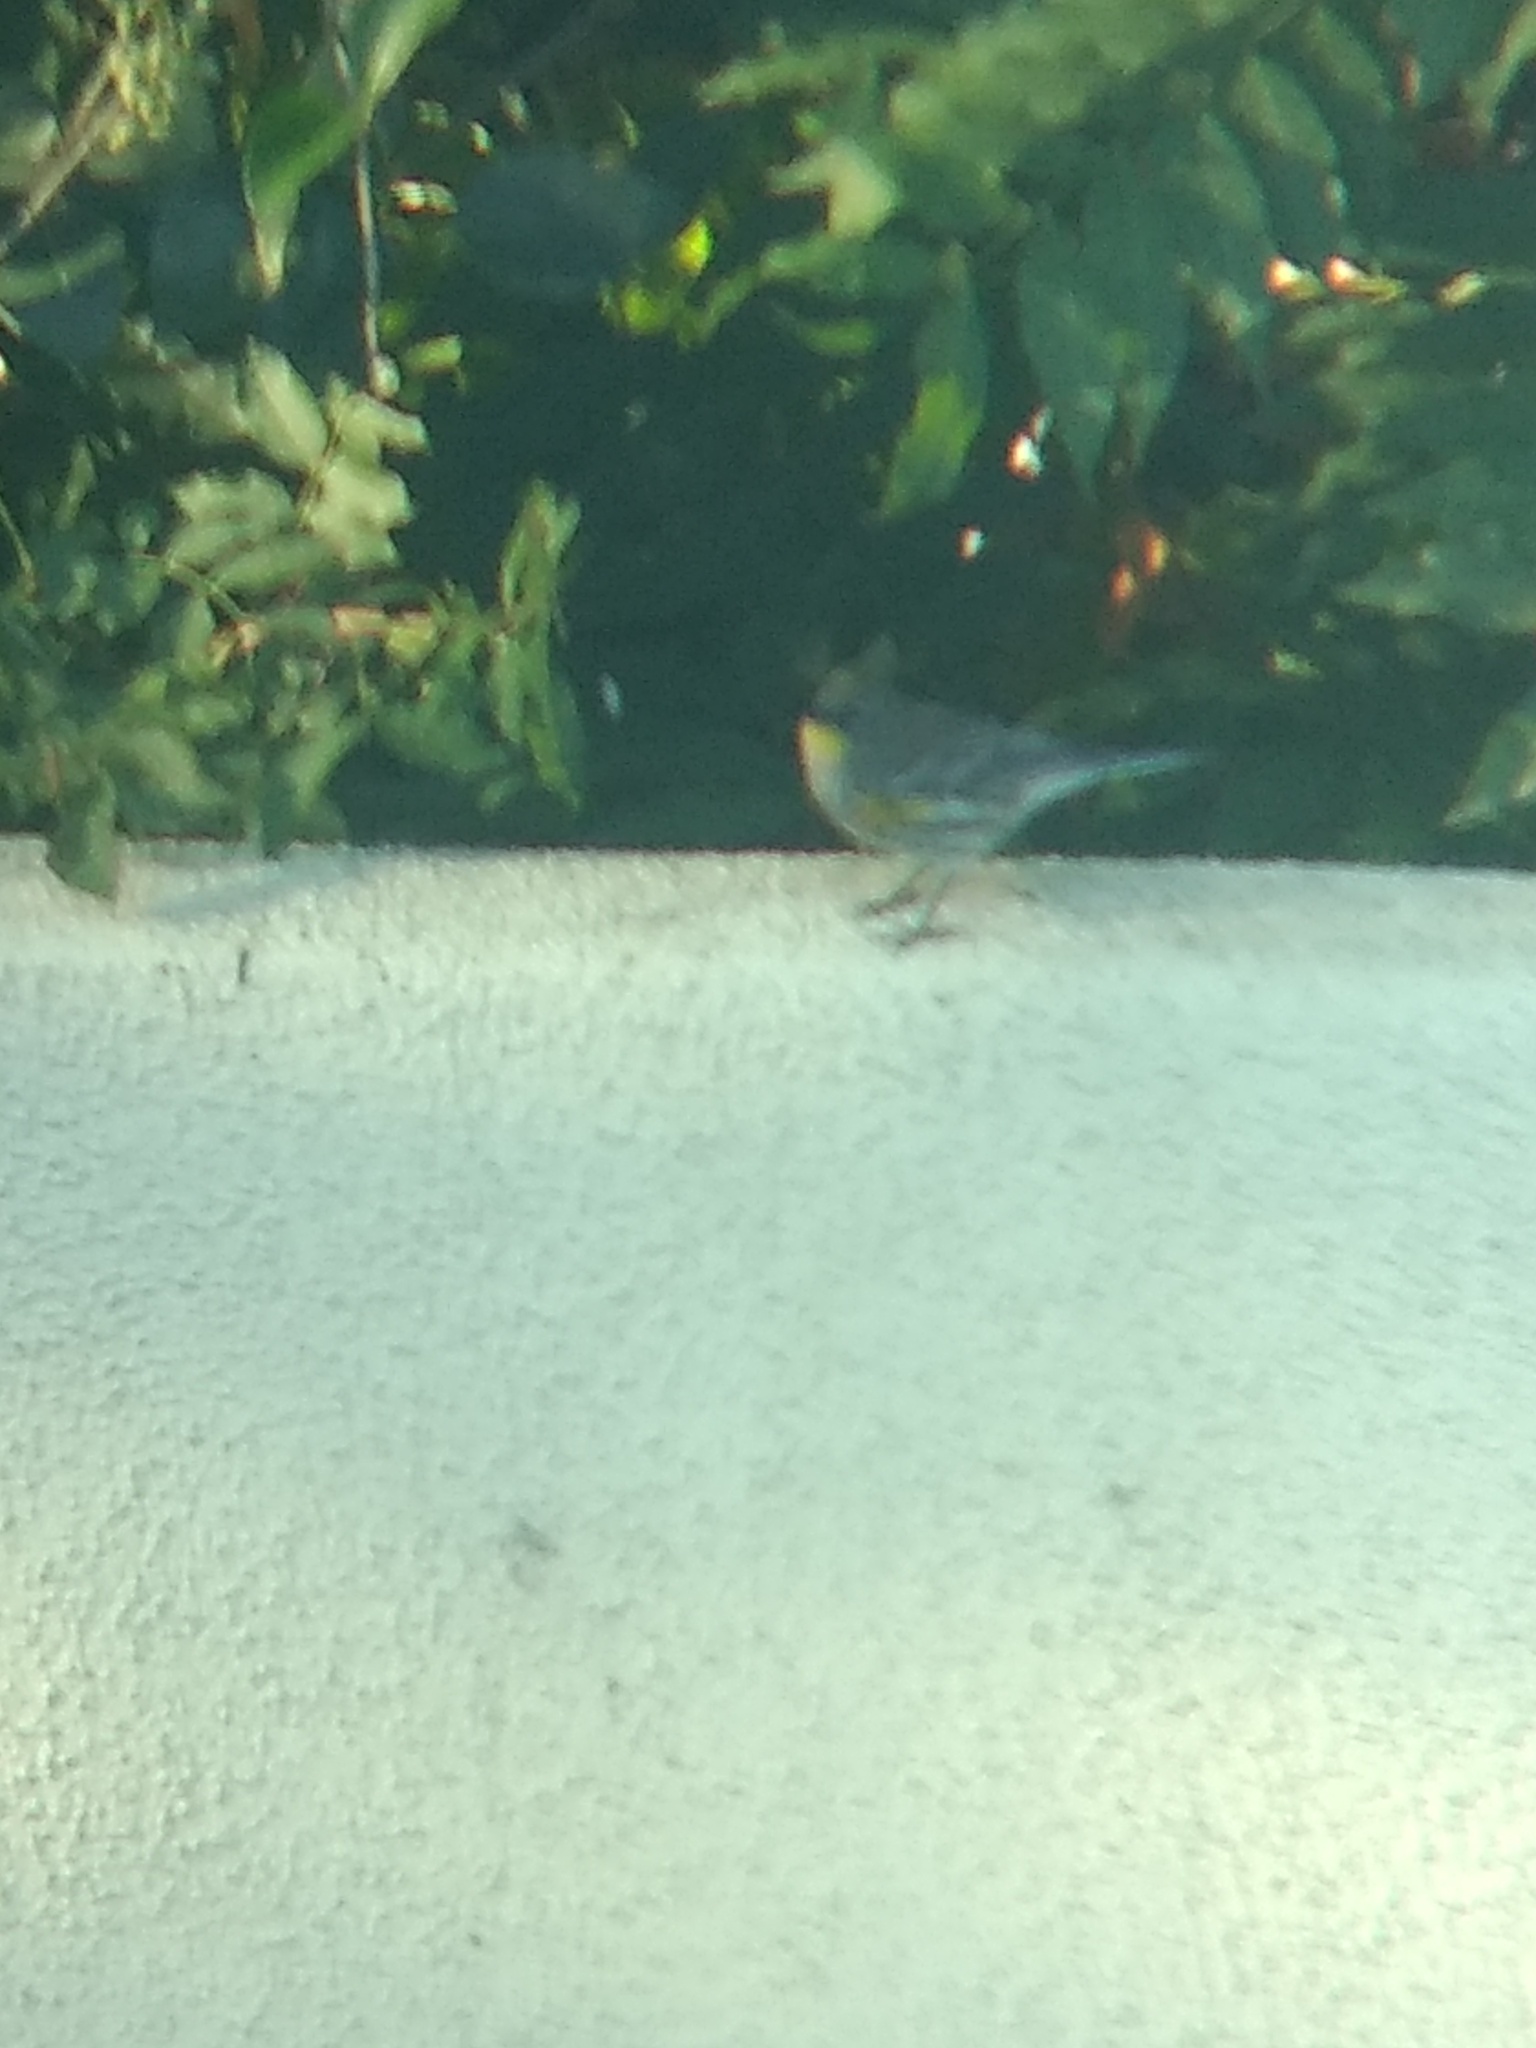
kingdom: Animalia
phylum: Chordata
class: Aves
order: Passeriformes
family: Parulidae
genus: Setophaga
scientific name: Setophaga coronata
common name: Myrtle warbler
